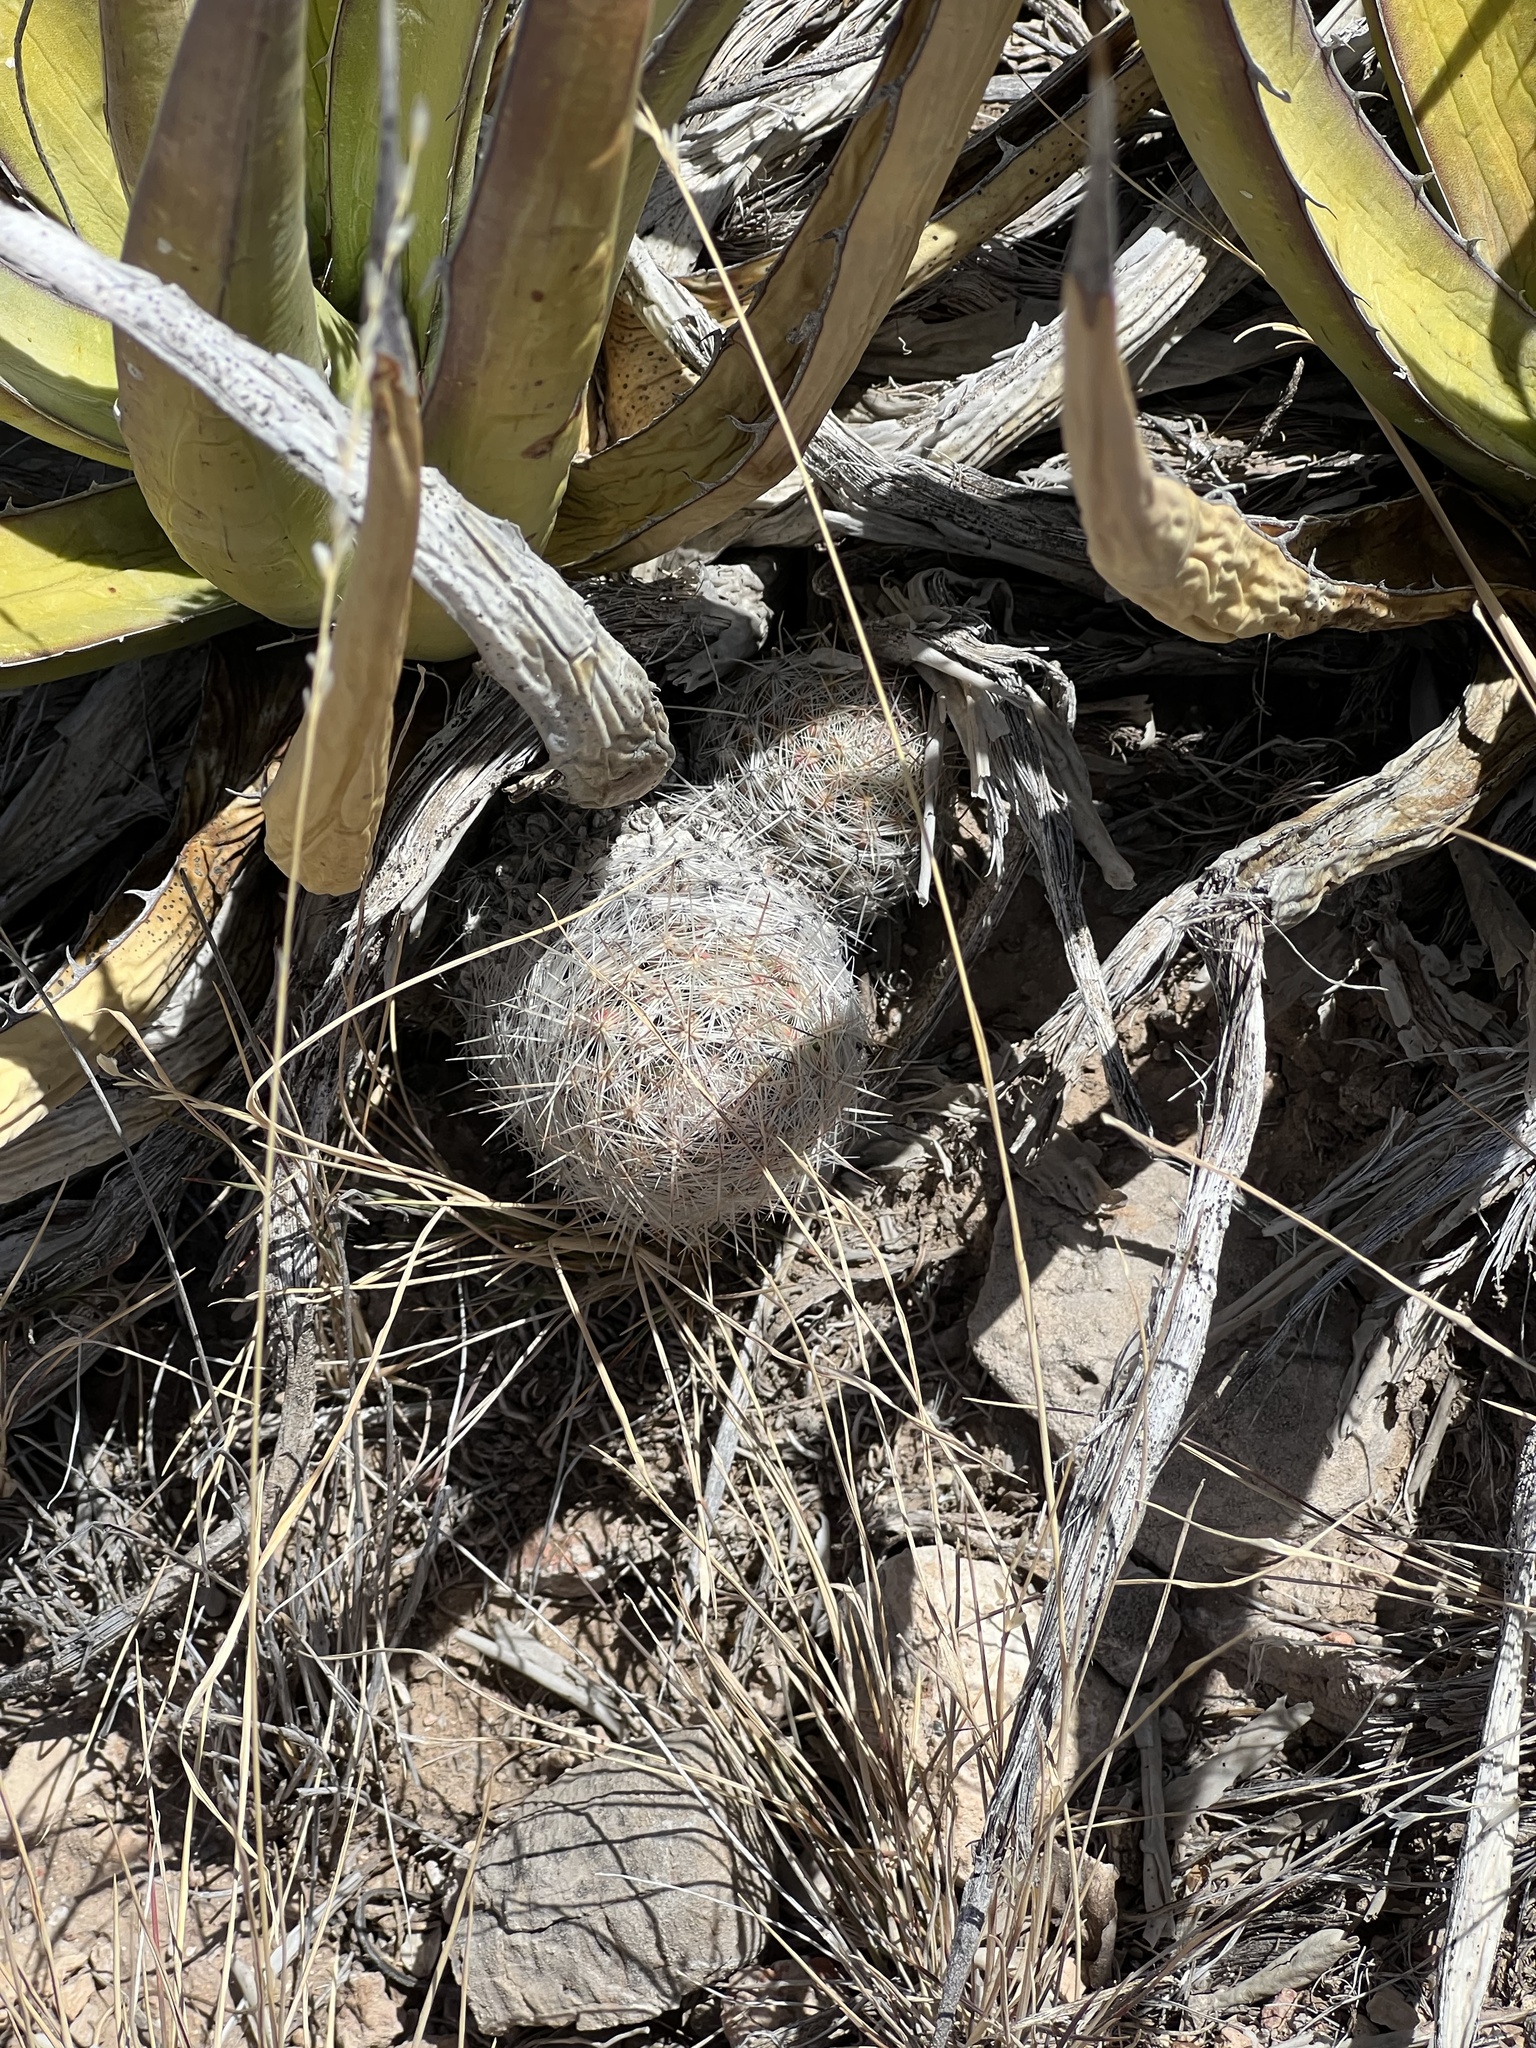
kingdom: Plantae
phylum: Tracheophyta
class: Magnoliopsida
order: Caryophyllales
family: Cactaceae
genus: Pelecyphora
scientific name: Pelecyphora tuberculosa
